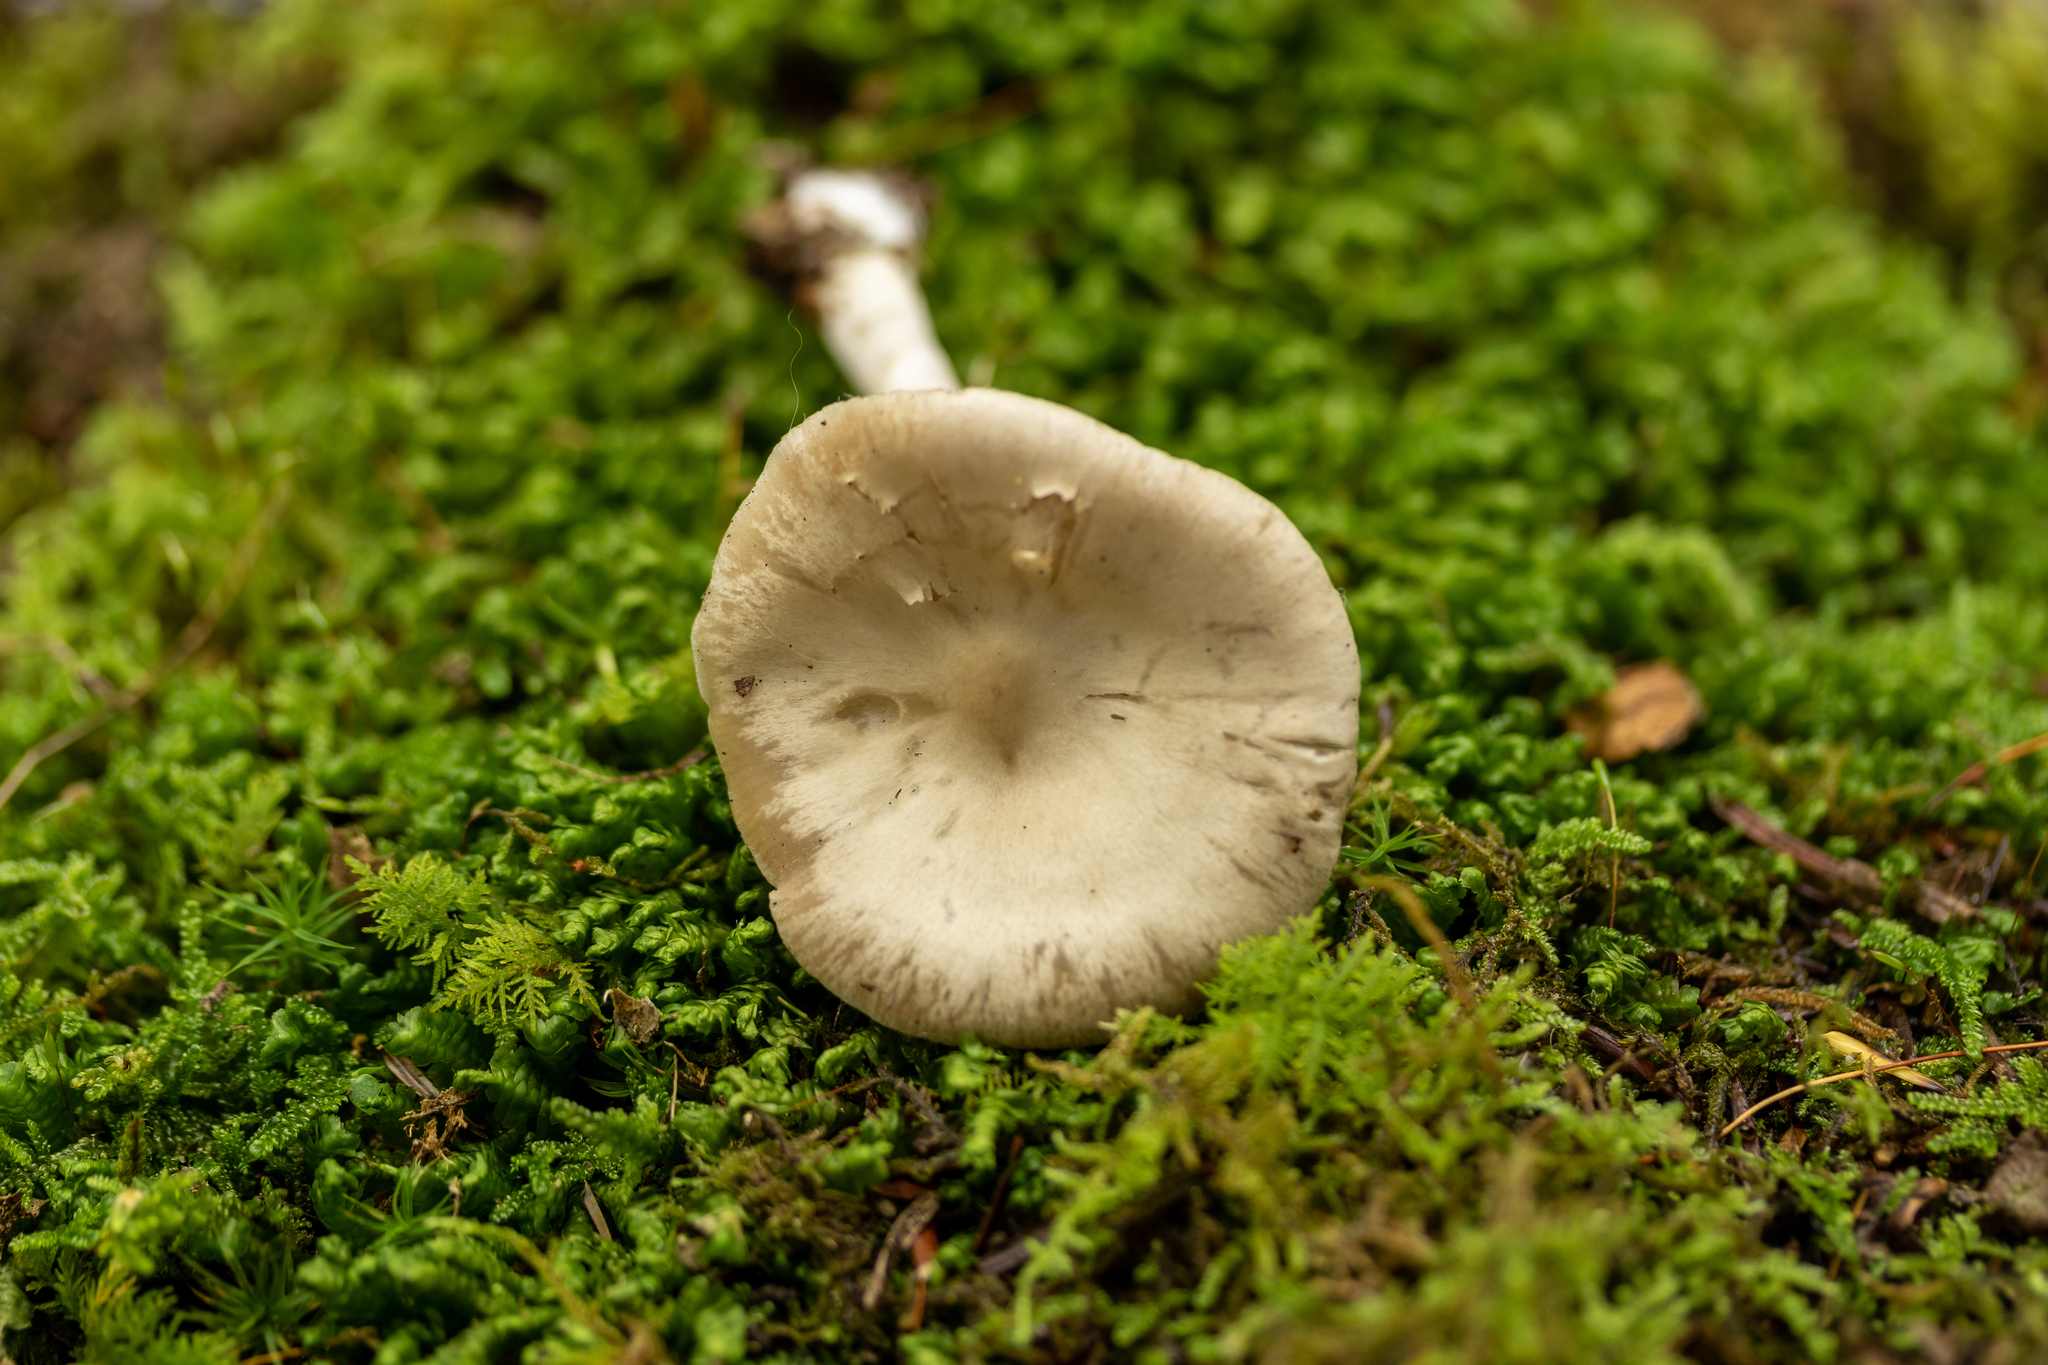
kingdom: Fungi
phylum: Basidiomycota
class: Agaricomycetes
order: Agaricales
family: Entolomataceae
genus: Entoloma
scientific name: Entoloma griseum
